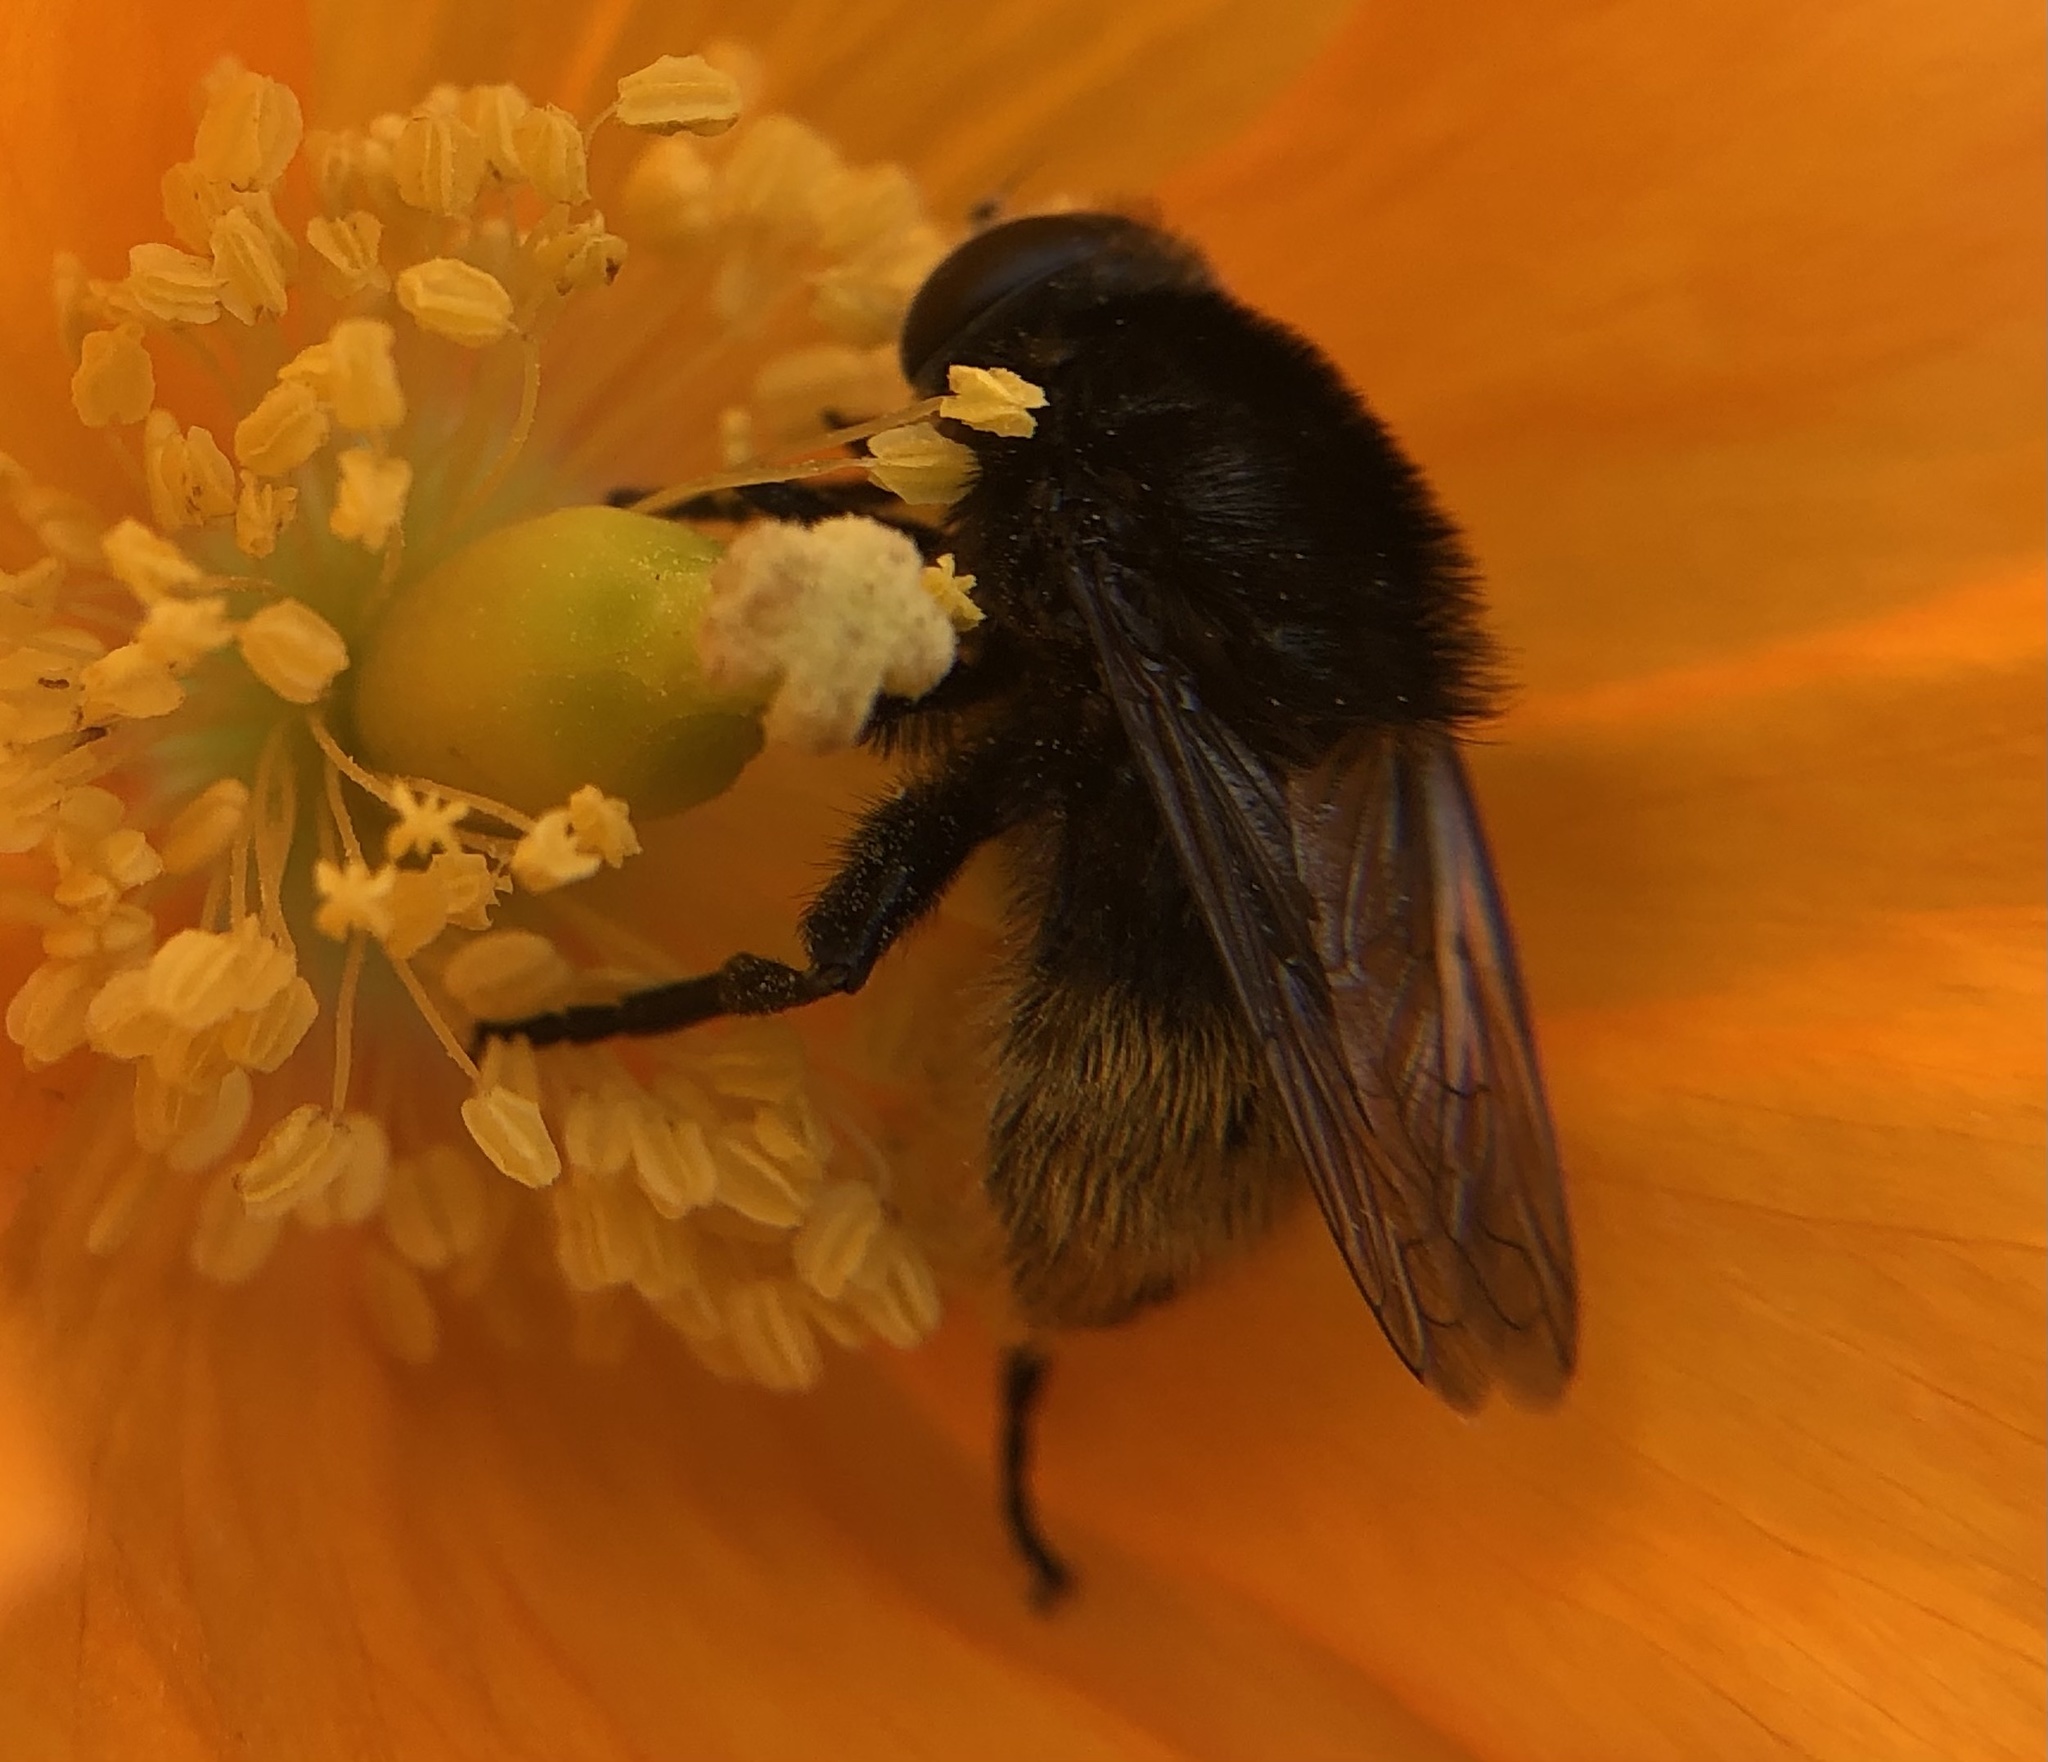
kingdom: Animalia
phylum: Arthropoda
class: Insecta
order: Diptera
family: Syrphidae
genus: Merodon
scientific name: Merodon equestris
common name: Greater bulb-fly
